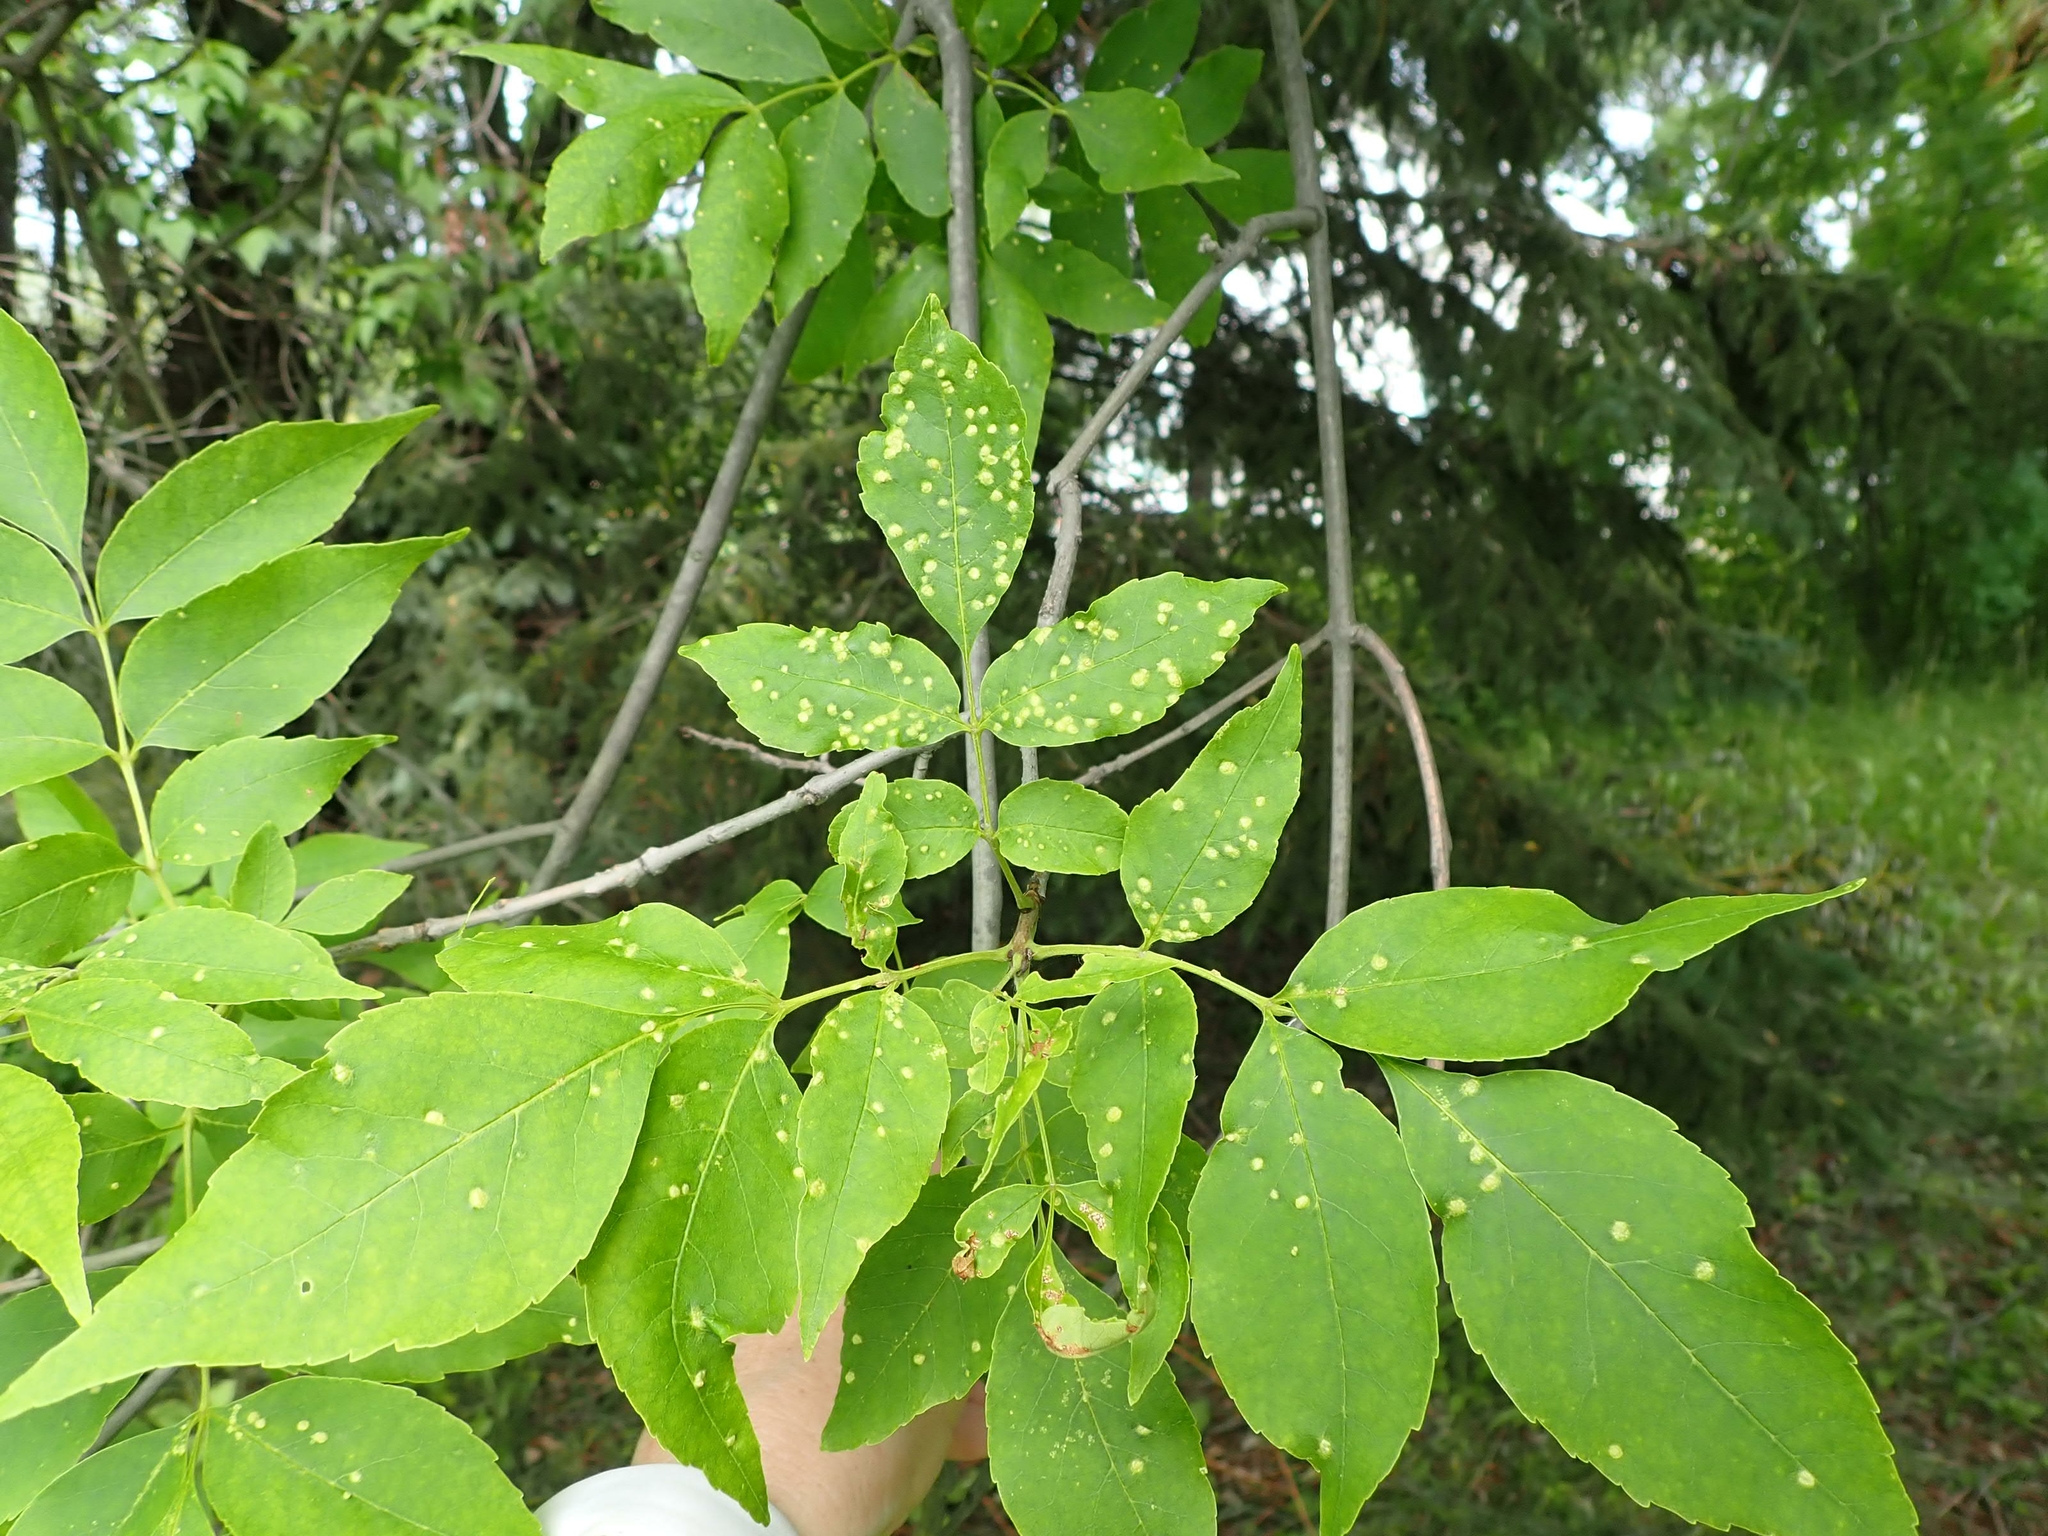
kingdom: Plantae
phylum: Tracheophyta
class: Magnoliopsida
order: Lamiales
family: Oleaceae
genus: Fraxinus
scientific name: Fraxinus pennsylvanica
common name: Green ash
